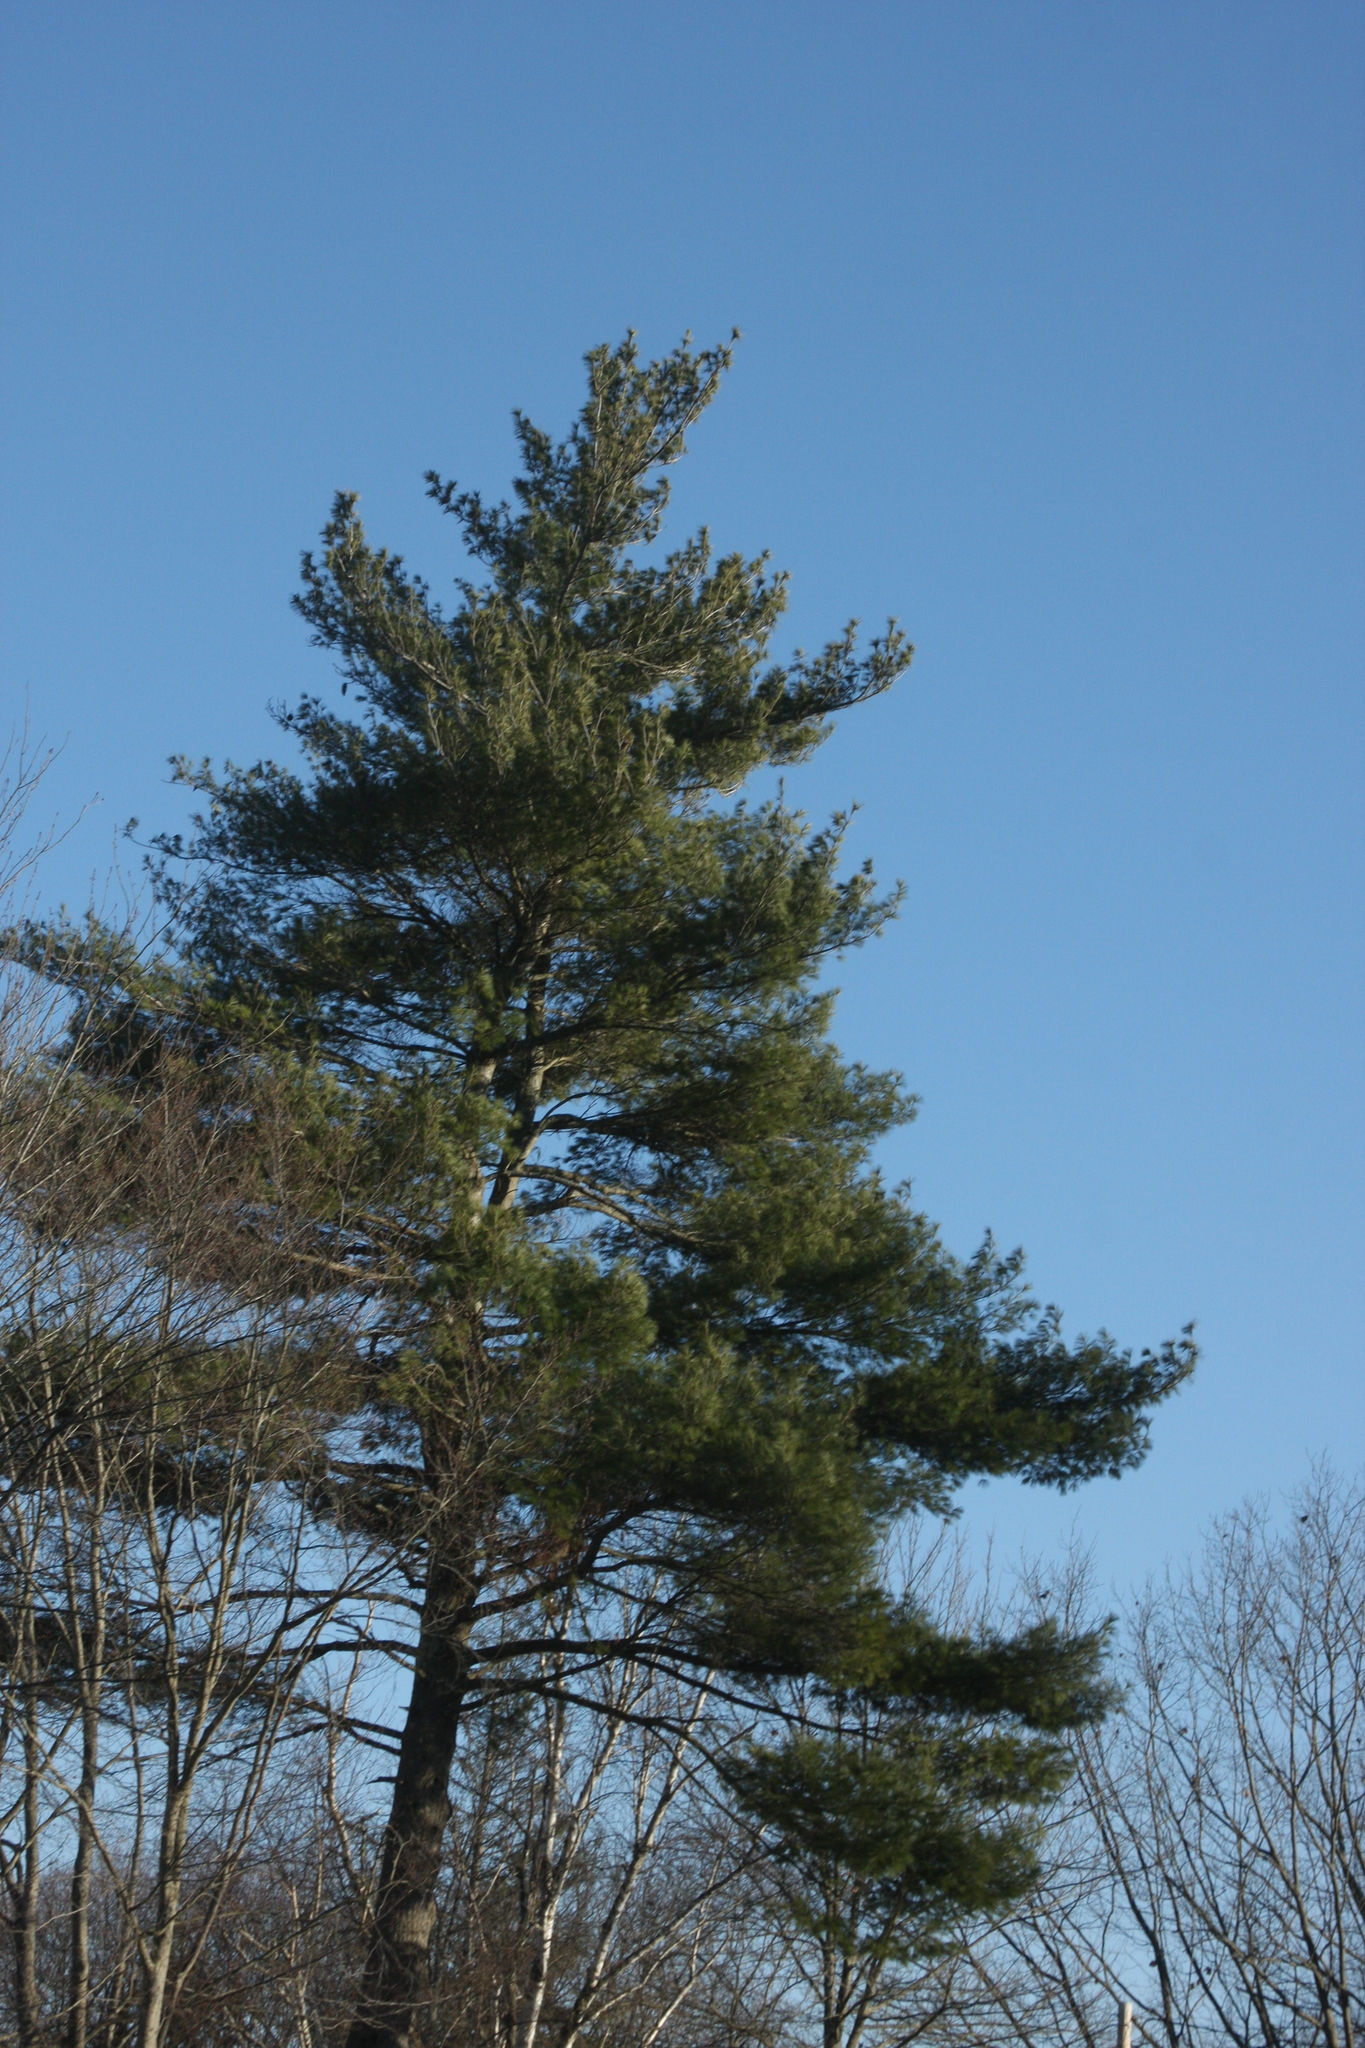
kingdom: Plantae
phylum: Tracheophyta
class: Pinopsida
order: Pinales
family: Pinaceae
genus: Pinus
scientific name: Pinus strobus
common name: Weymouth pine
